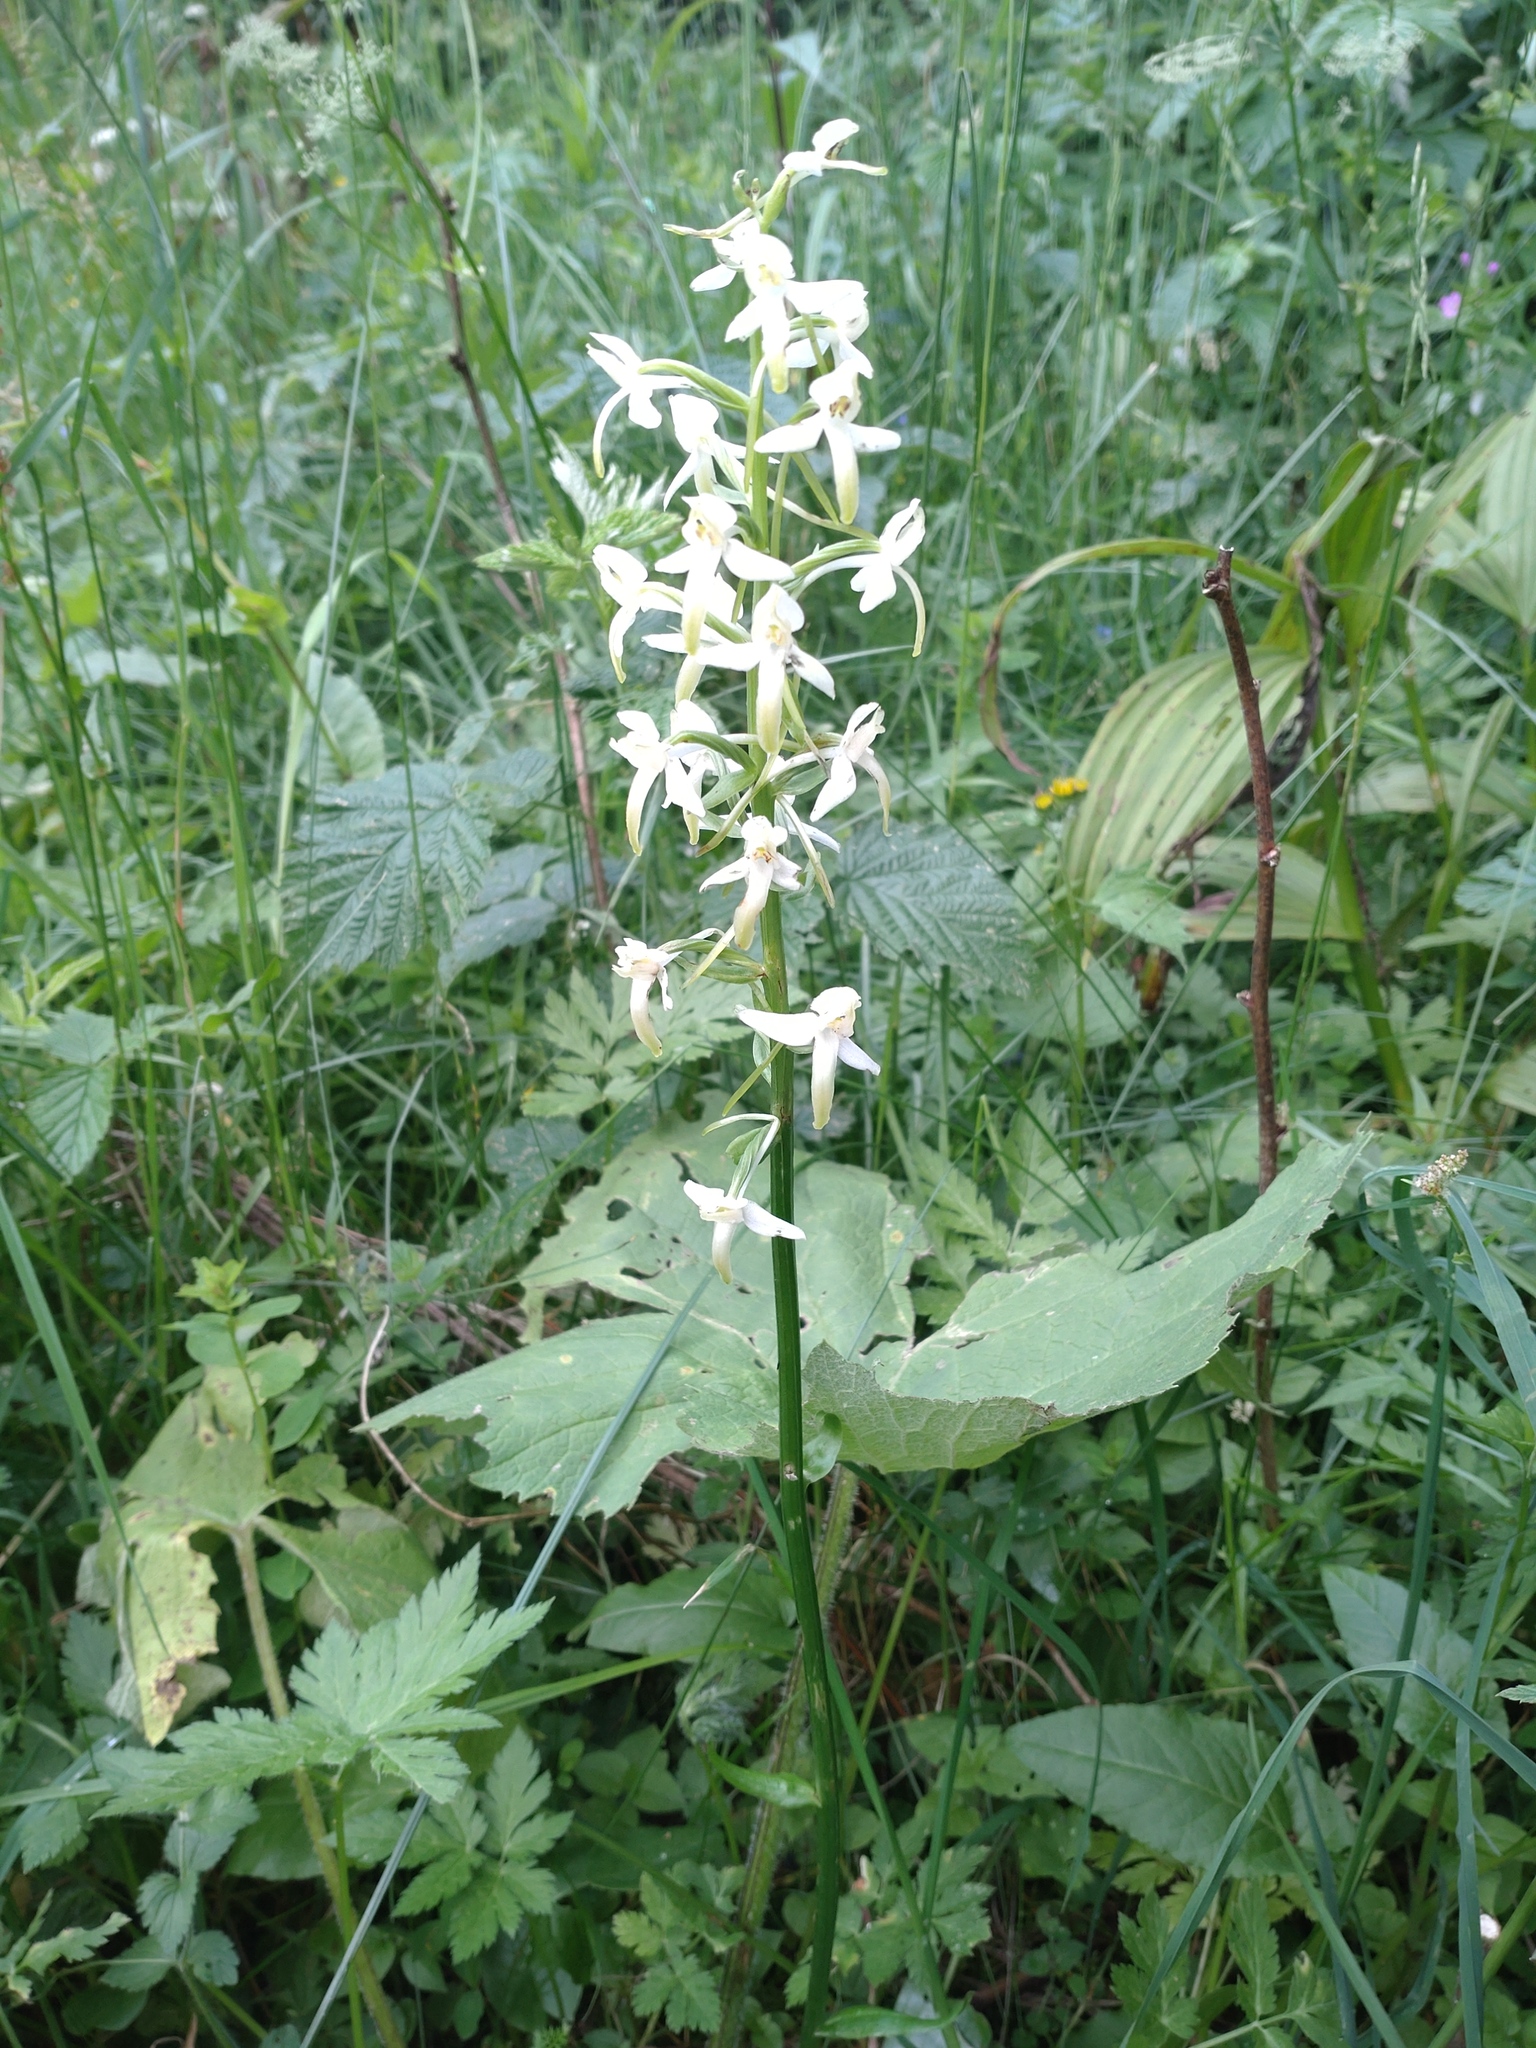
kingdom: Plantae
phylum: Tracheophyta
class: Liliopsida
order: Asparagales
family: Orchidaceae
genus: Platanthera
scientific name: Platanthera bifolia
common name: Lesser butterfly-orchid
